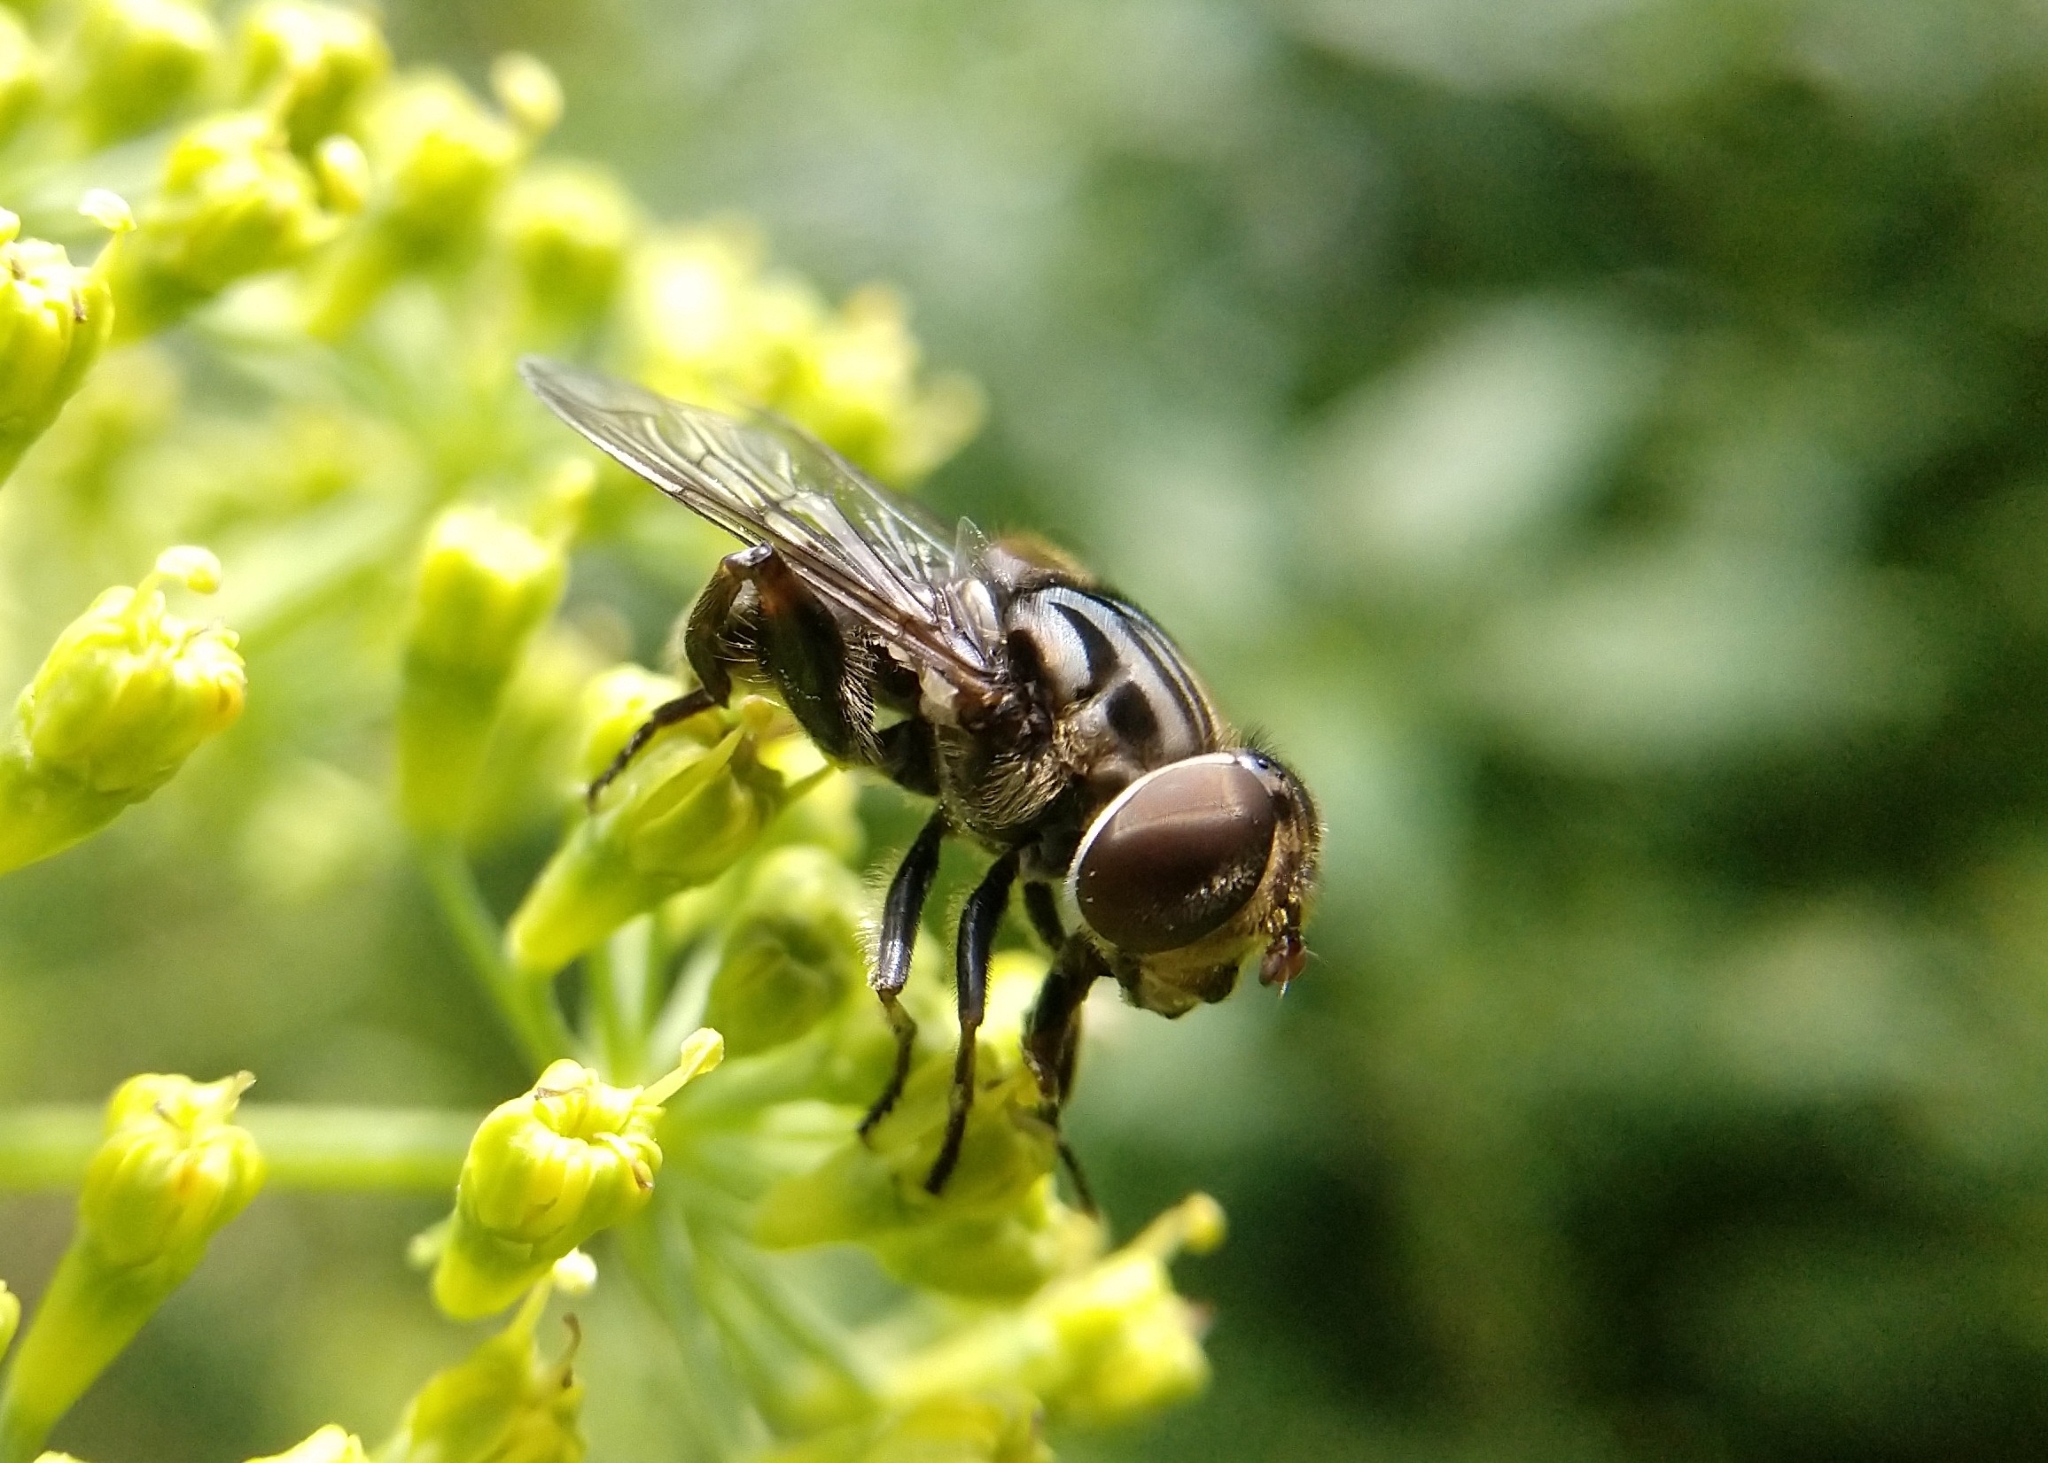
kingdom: Animalia
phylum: Arthropoda
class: Insecta
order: Diptera
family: Syrphidae
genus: Palpada
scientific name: Palpada furcata
